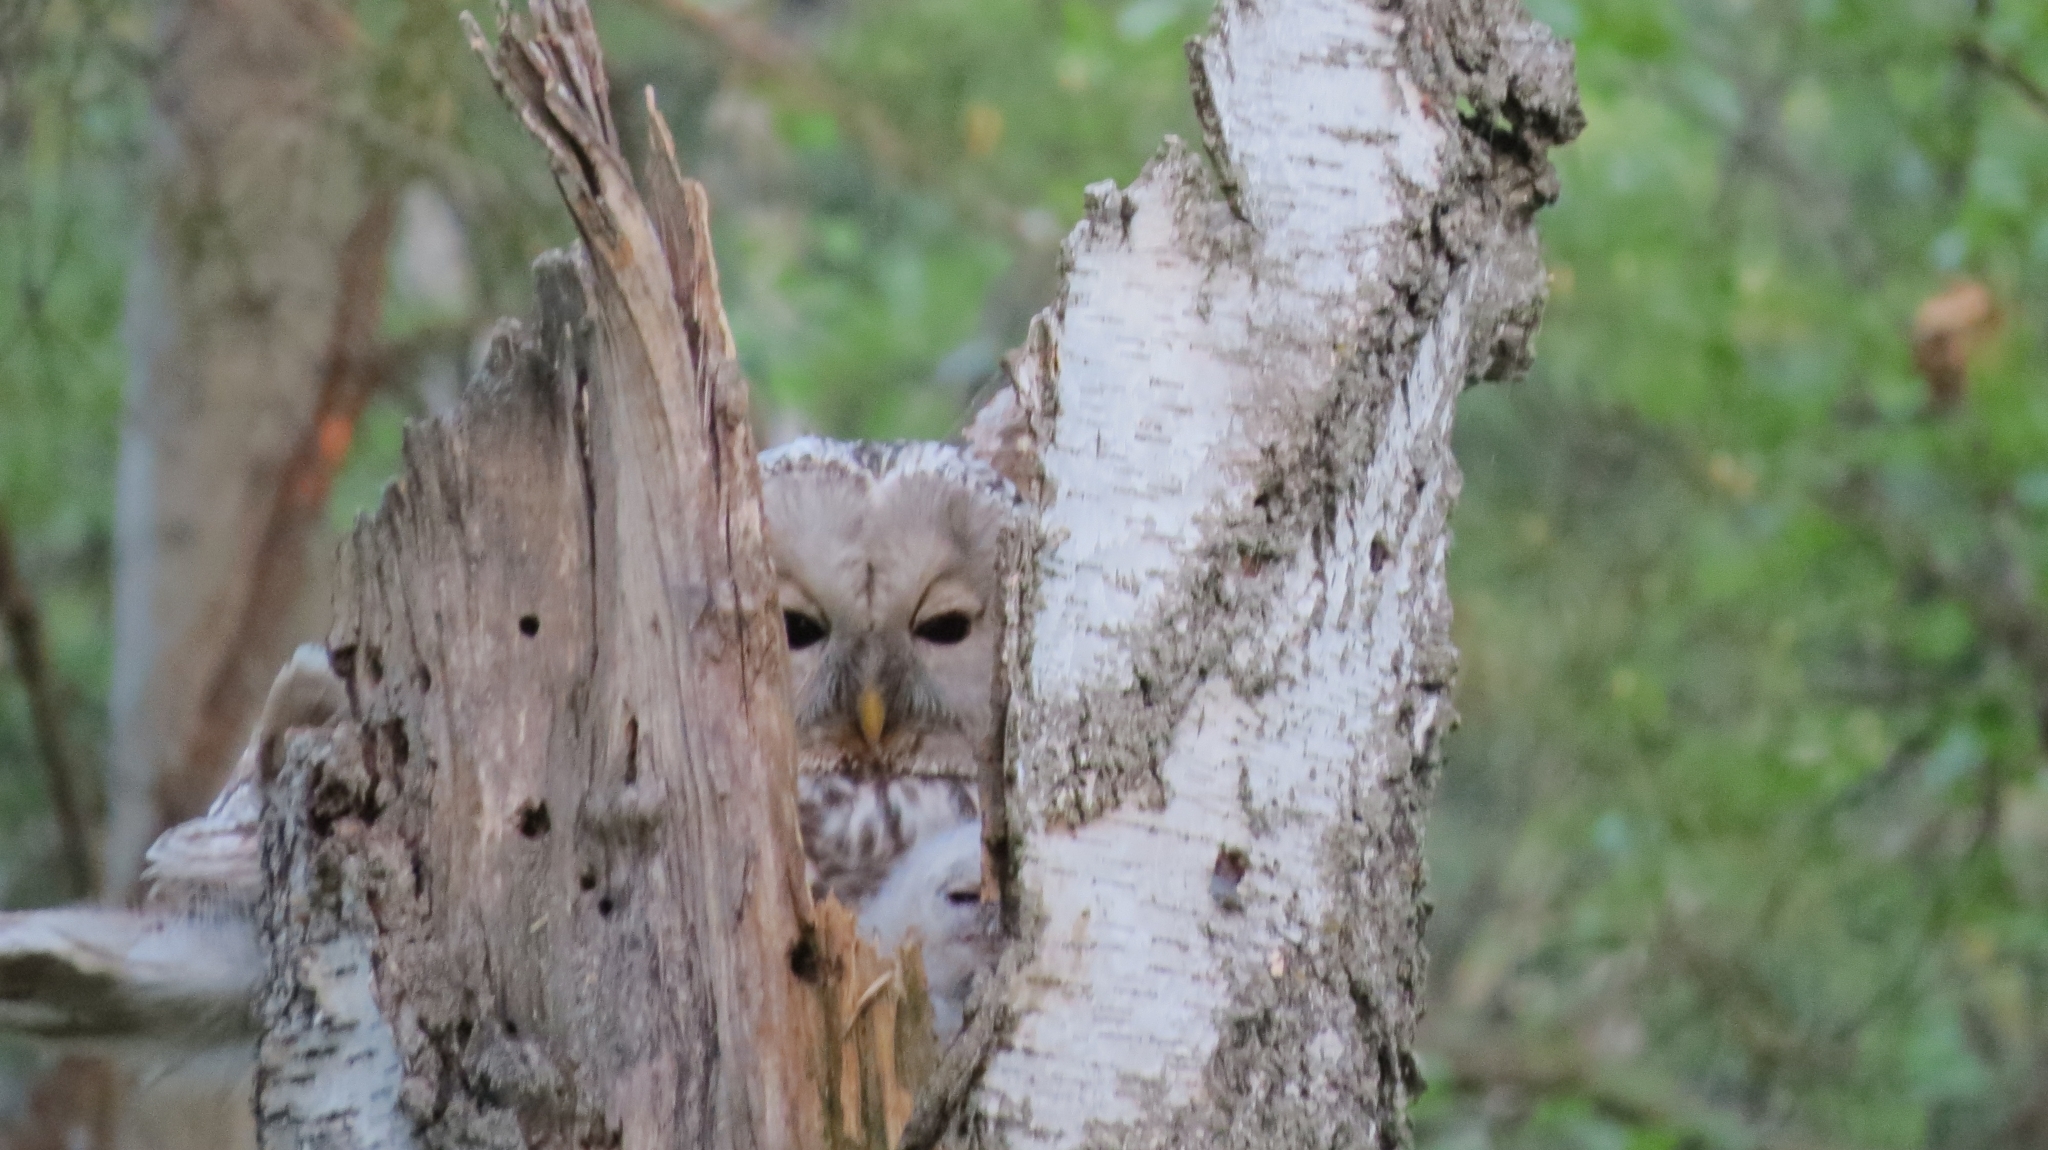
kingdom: Animalia
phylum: Chordata
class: Aves
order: Strigiformes
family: Strigidae
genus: Strix
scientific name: Strix uralensis
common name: Ural owl
